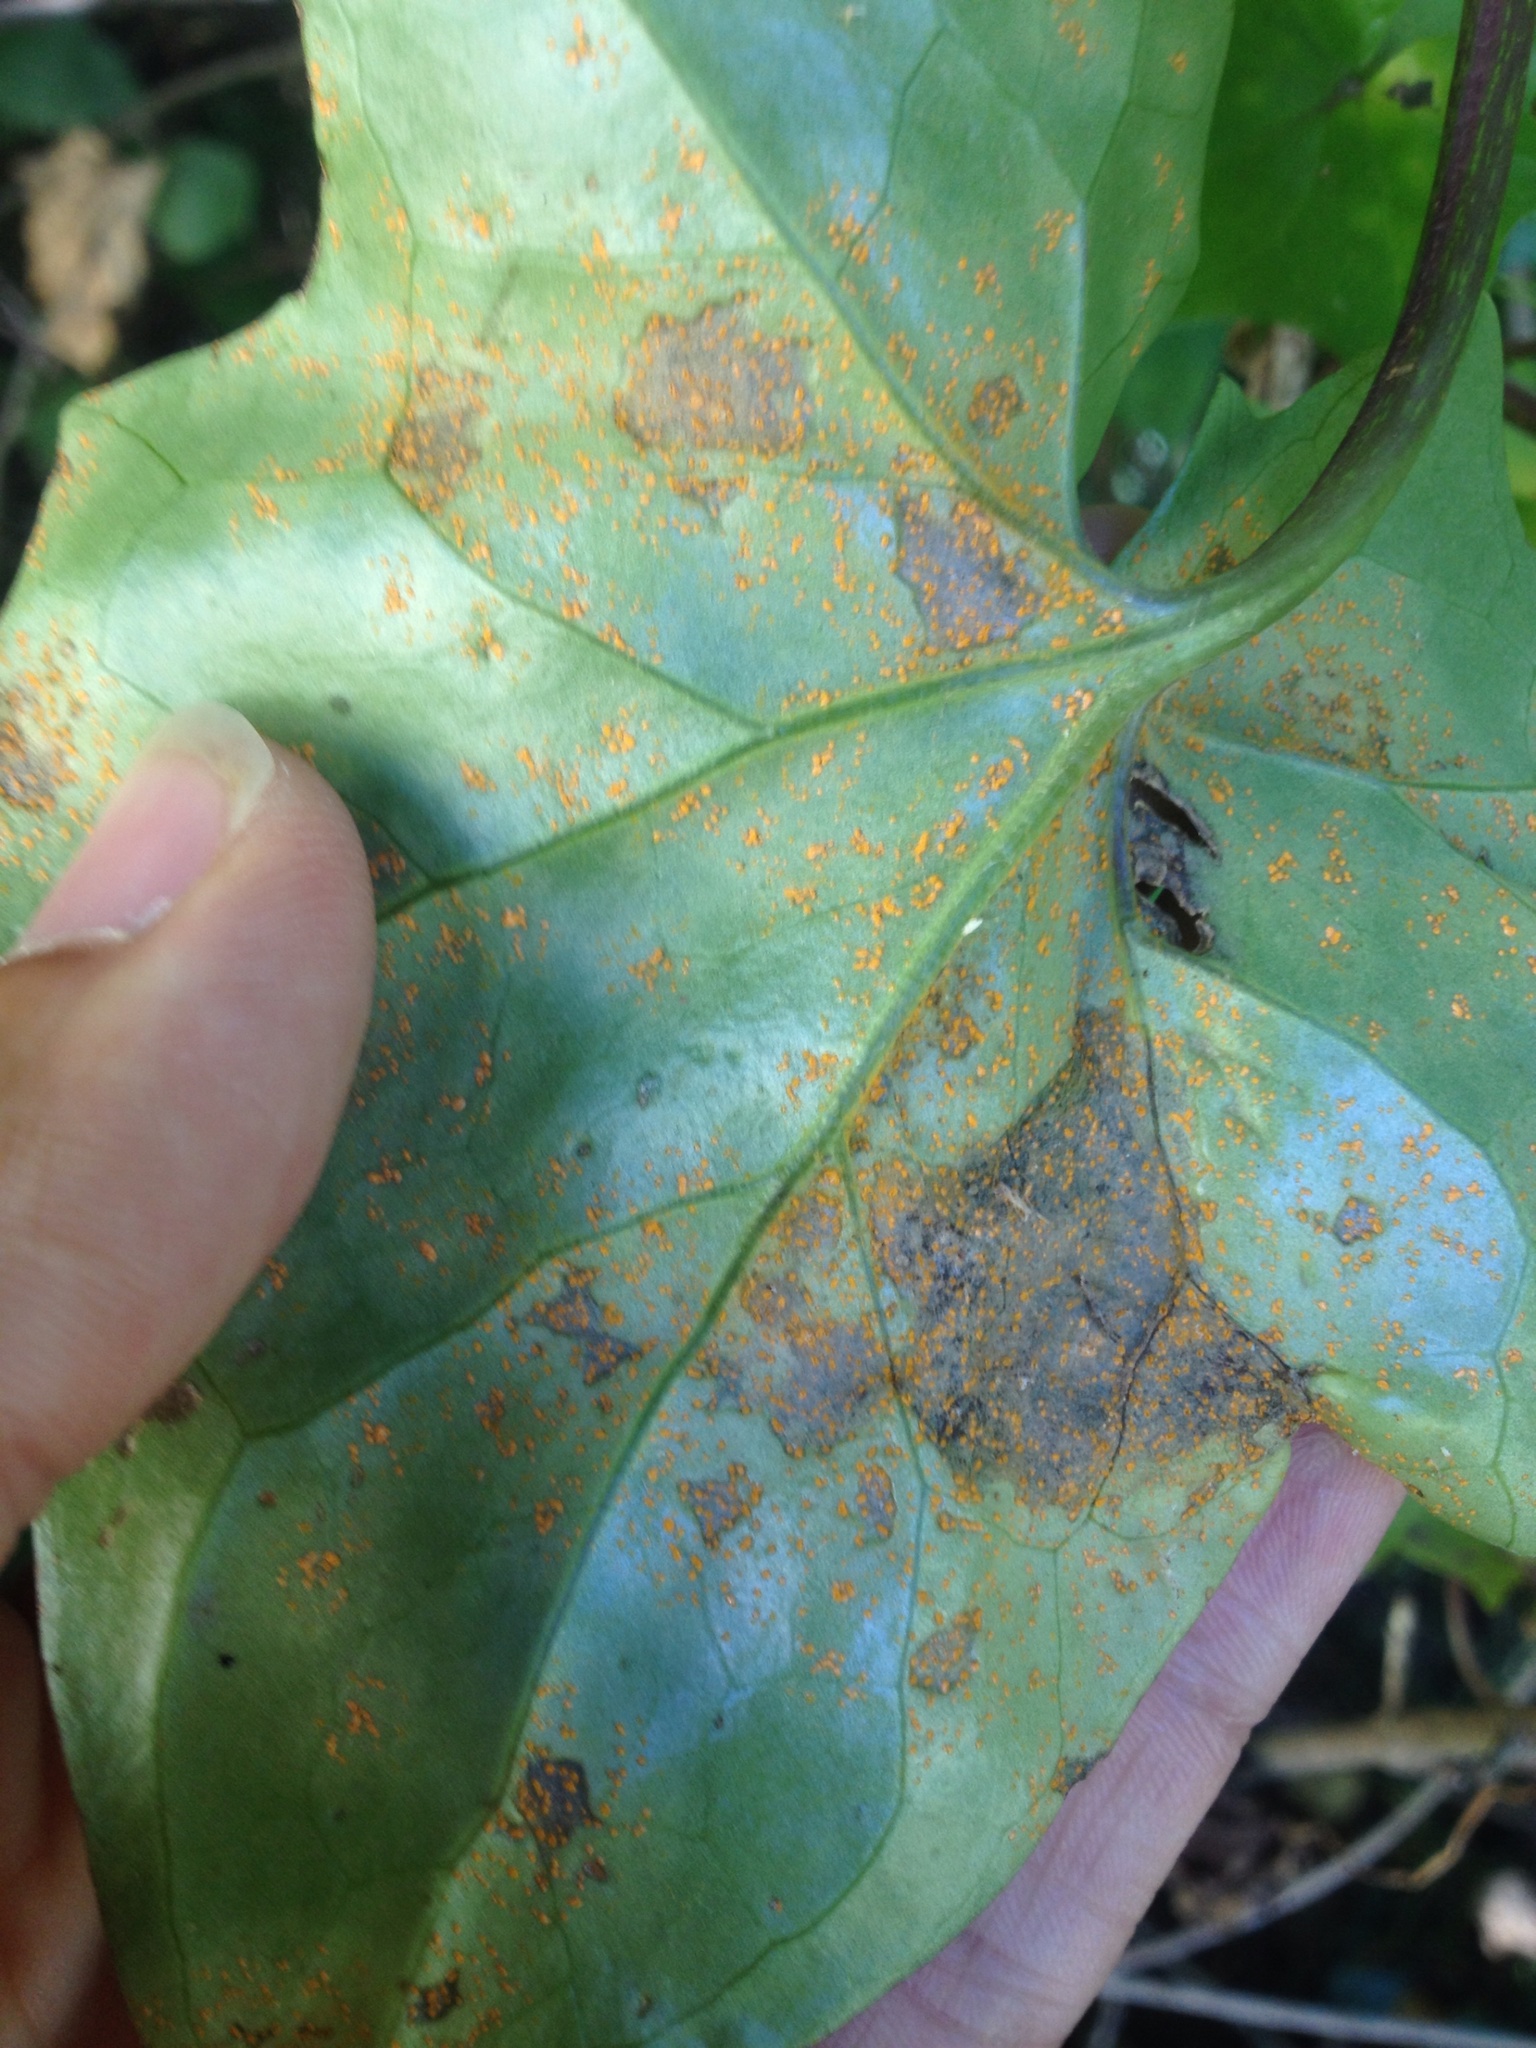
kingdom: Fungi
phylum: Basidiomycota
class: Pucciniomycetes
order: Pucciniales
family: Coleosporiaceae
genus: Coleosporium
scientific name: Coleosporium tussilaginis
